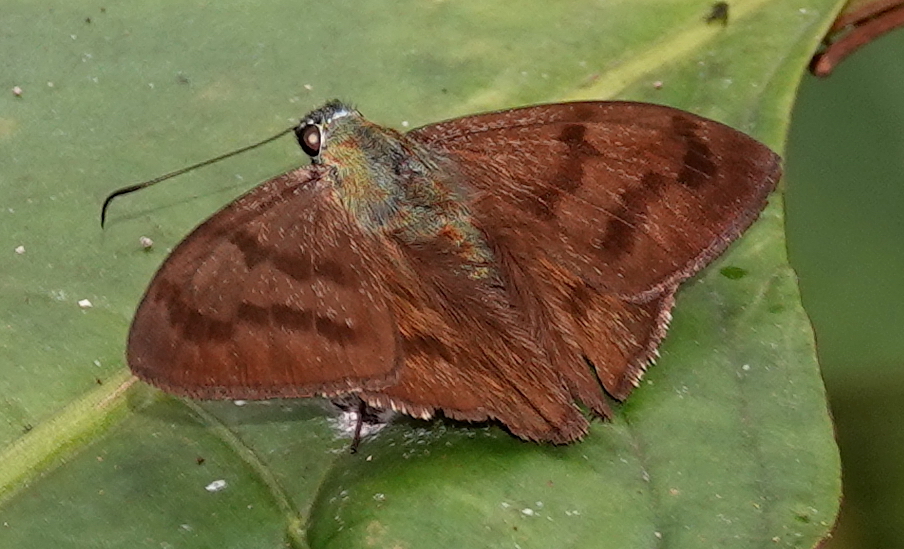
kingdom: Animalia
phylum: Arthropoda
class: Insecta
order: Lepidoptera
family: Hesperiidae
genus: Astraptes
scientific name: Astraptes anaphus
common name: Yellow-tipped flasher
